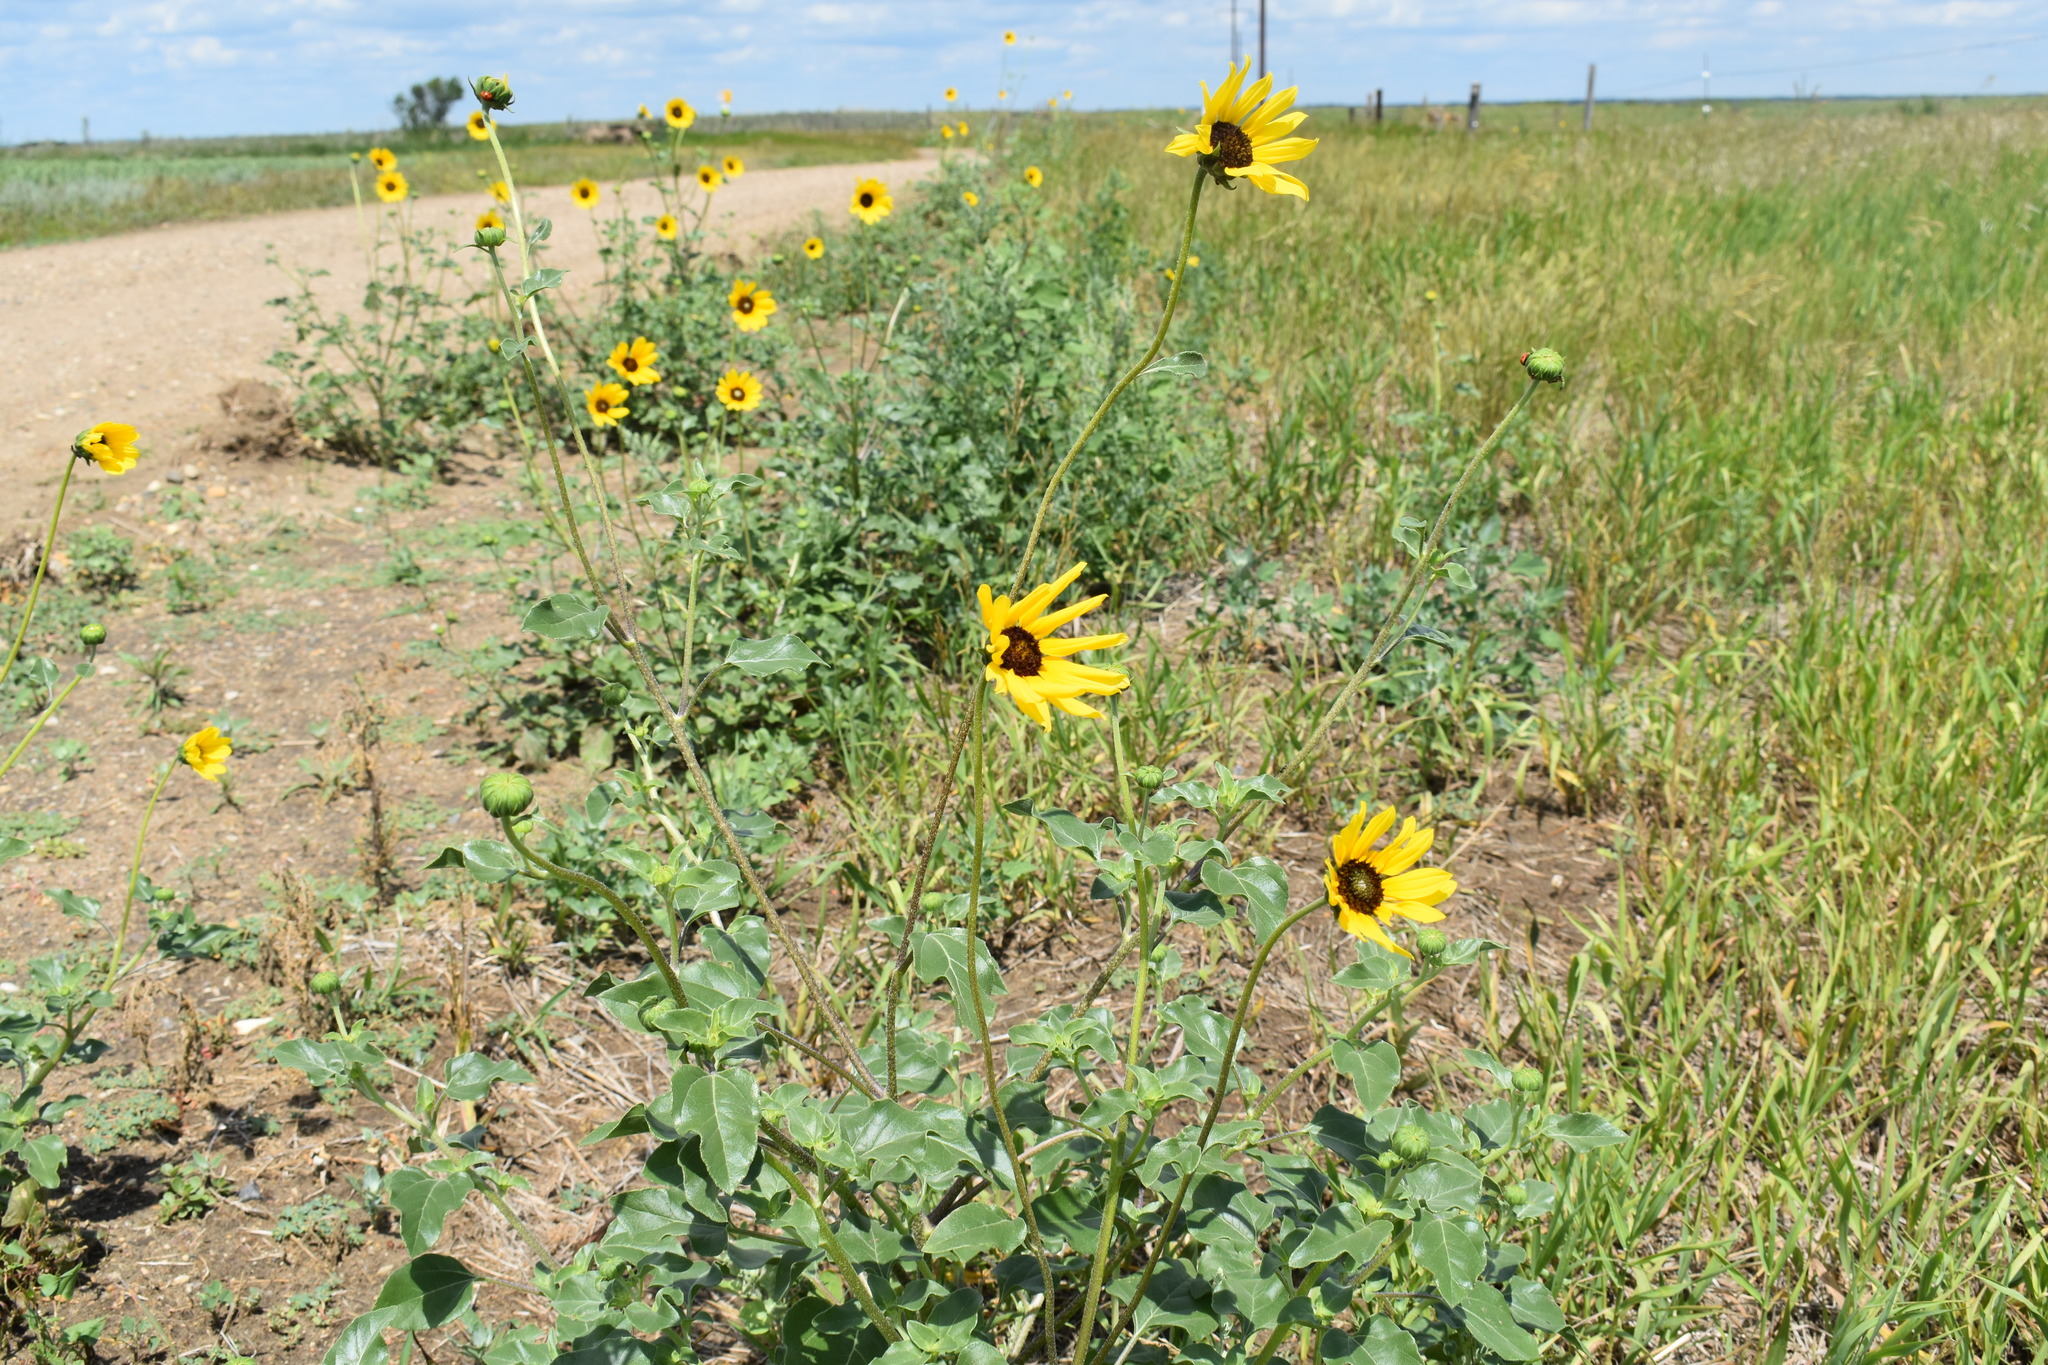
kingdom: Plantae
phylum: Tracheophyta
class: Magnoliopsida
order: Asterales
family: Asteraceae
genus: Helianthus
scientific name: Helianthus petiolaris
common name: Lesser sunflower
